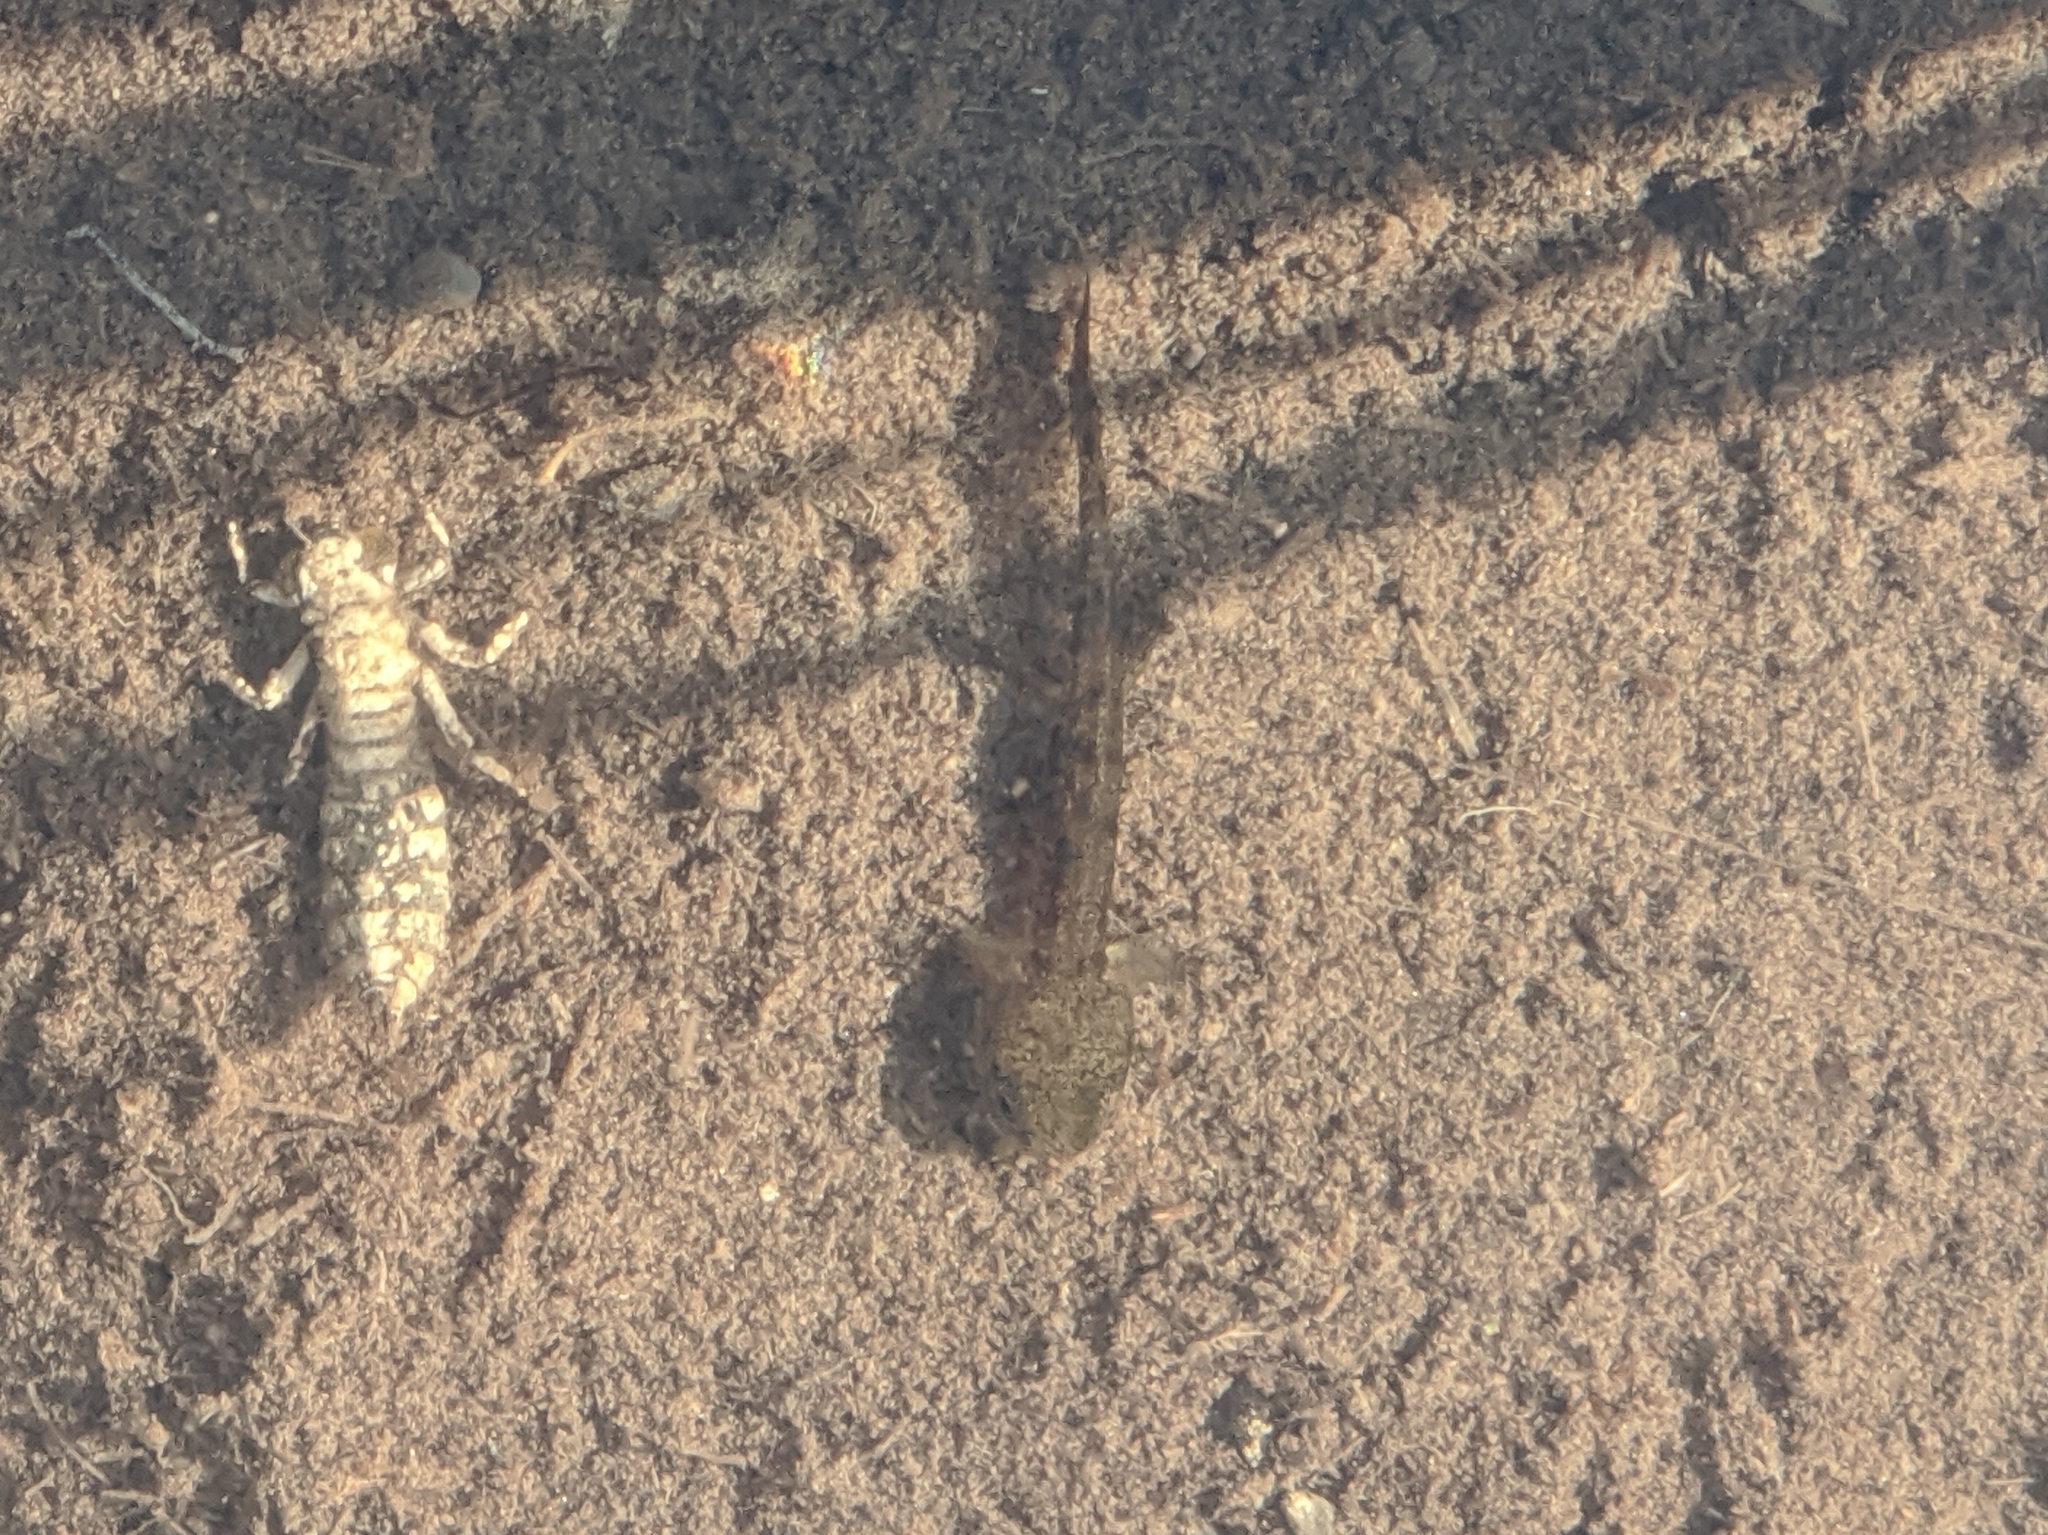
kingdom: Animalia
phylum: Chordata
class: Amphibia
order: Caudata
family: Salamandridae
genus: Salamandra
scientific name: Salamandra salamandra
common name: Fire salamander
